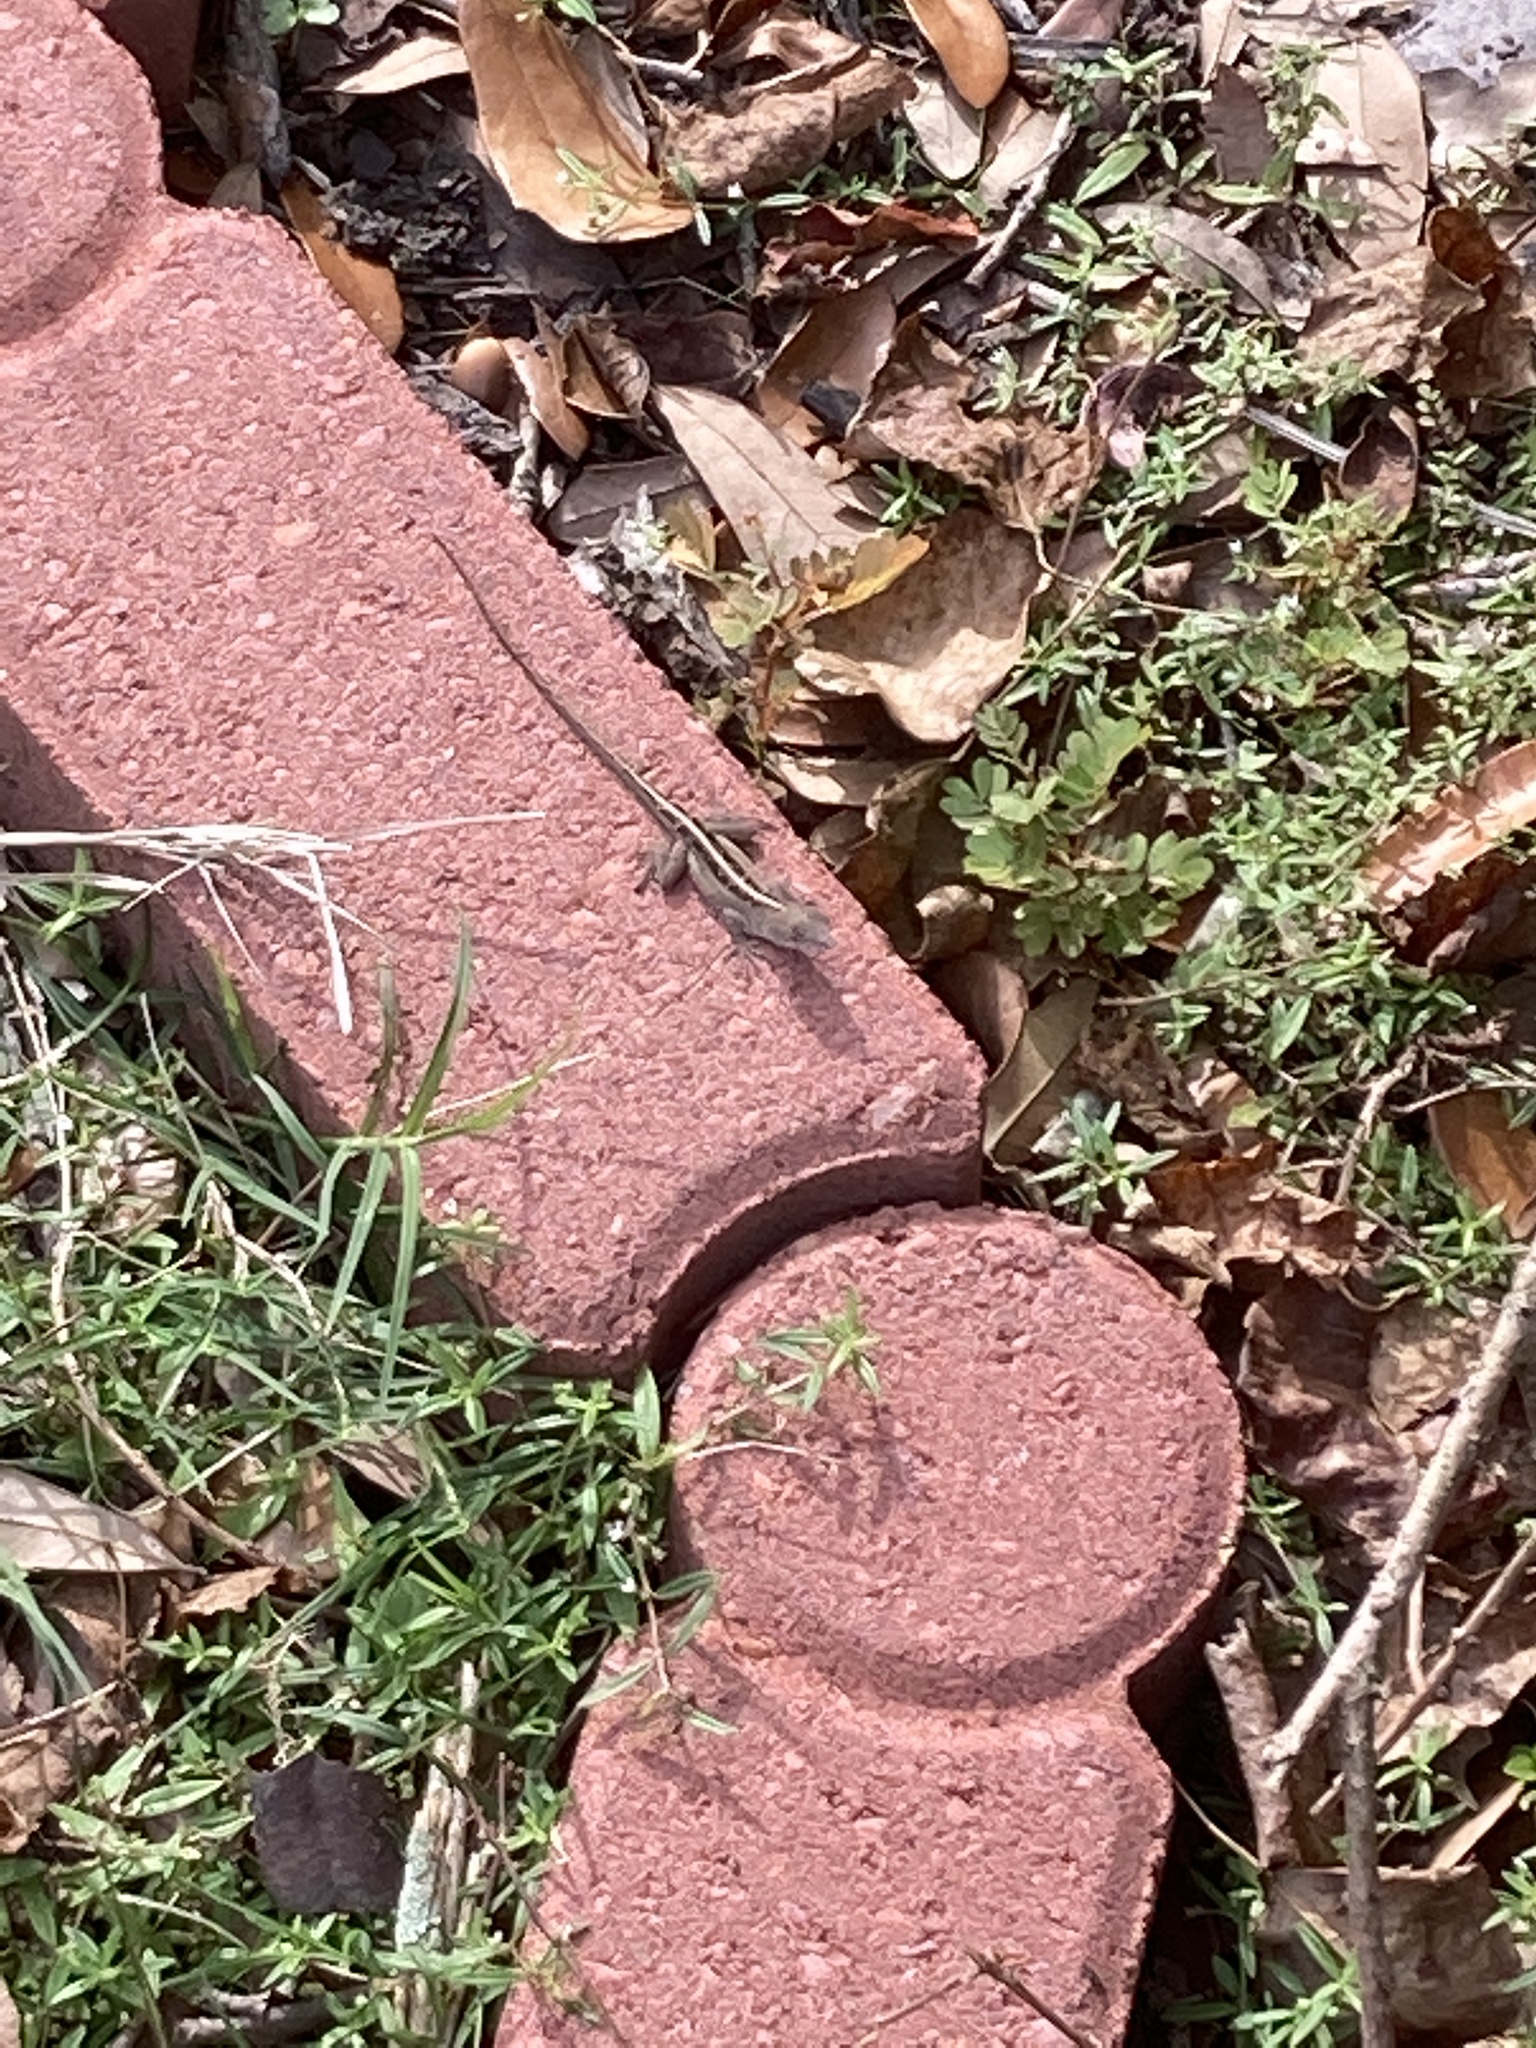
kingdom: Animalia
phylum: Chordata
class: Squamata
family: Dactyloidae
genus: Anolis
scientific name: Anolis sagrei
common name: Brown anole
